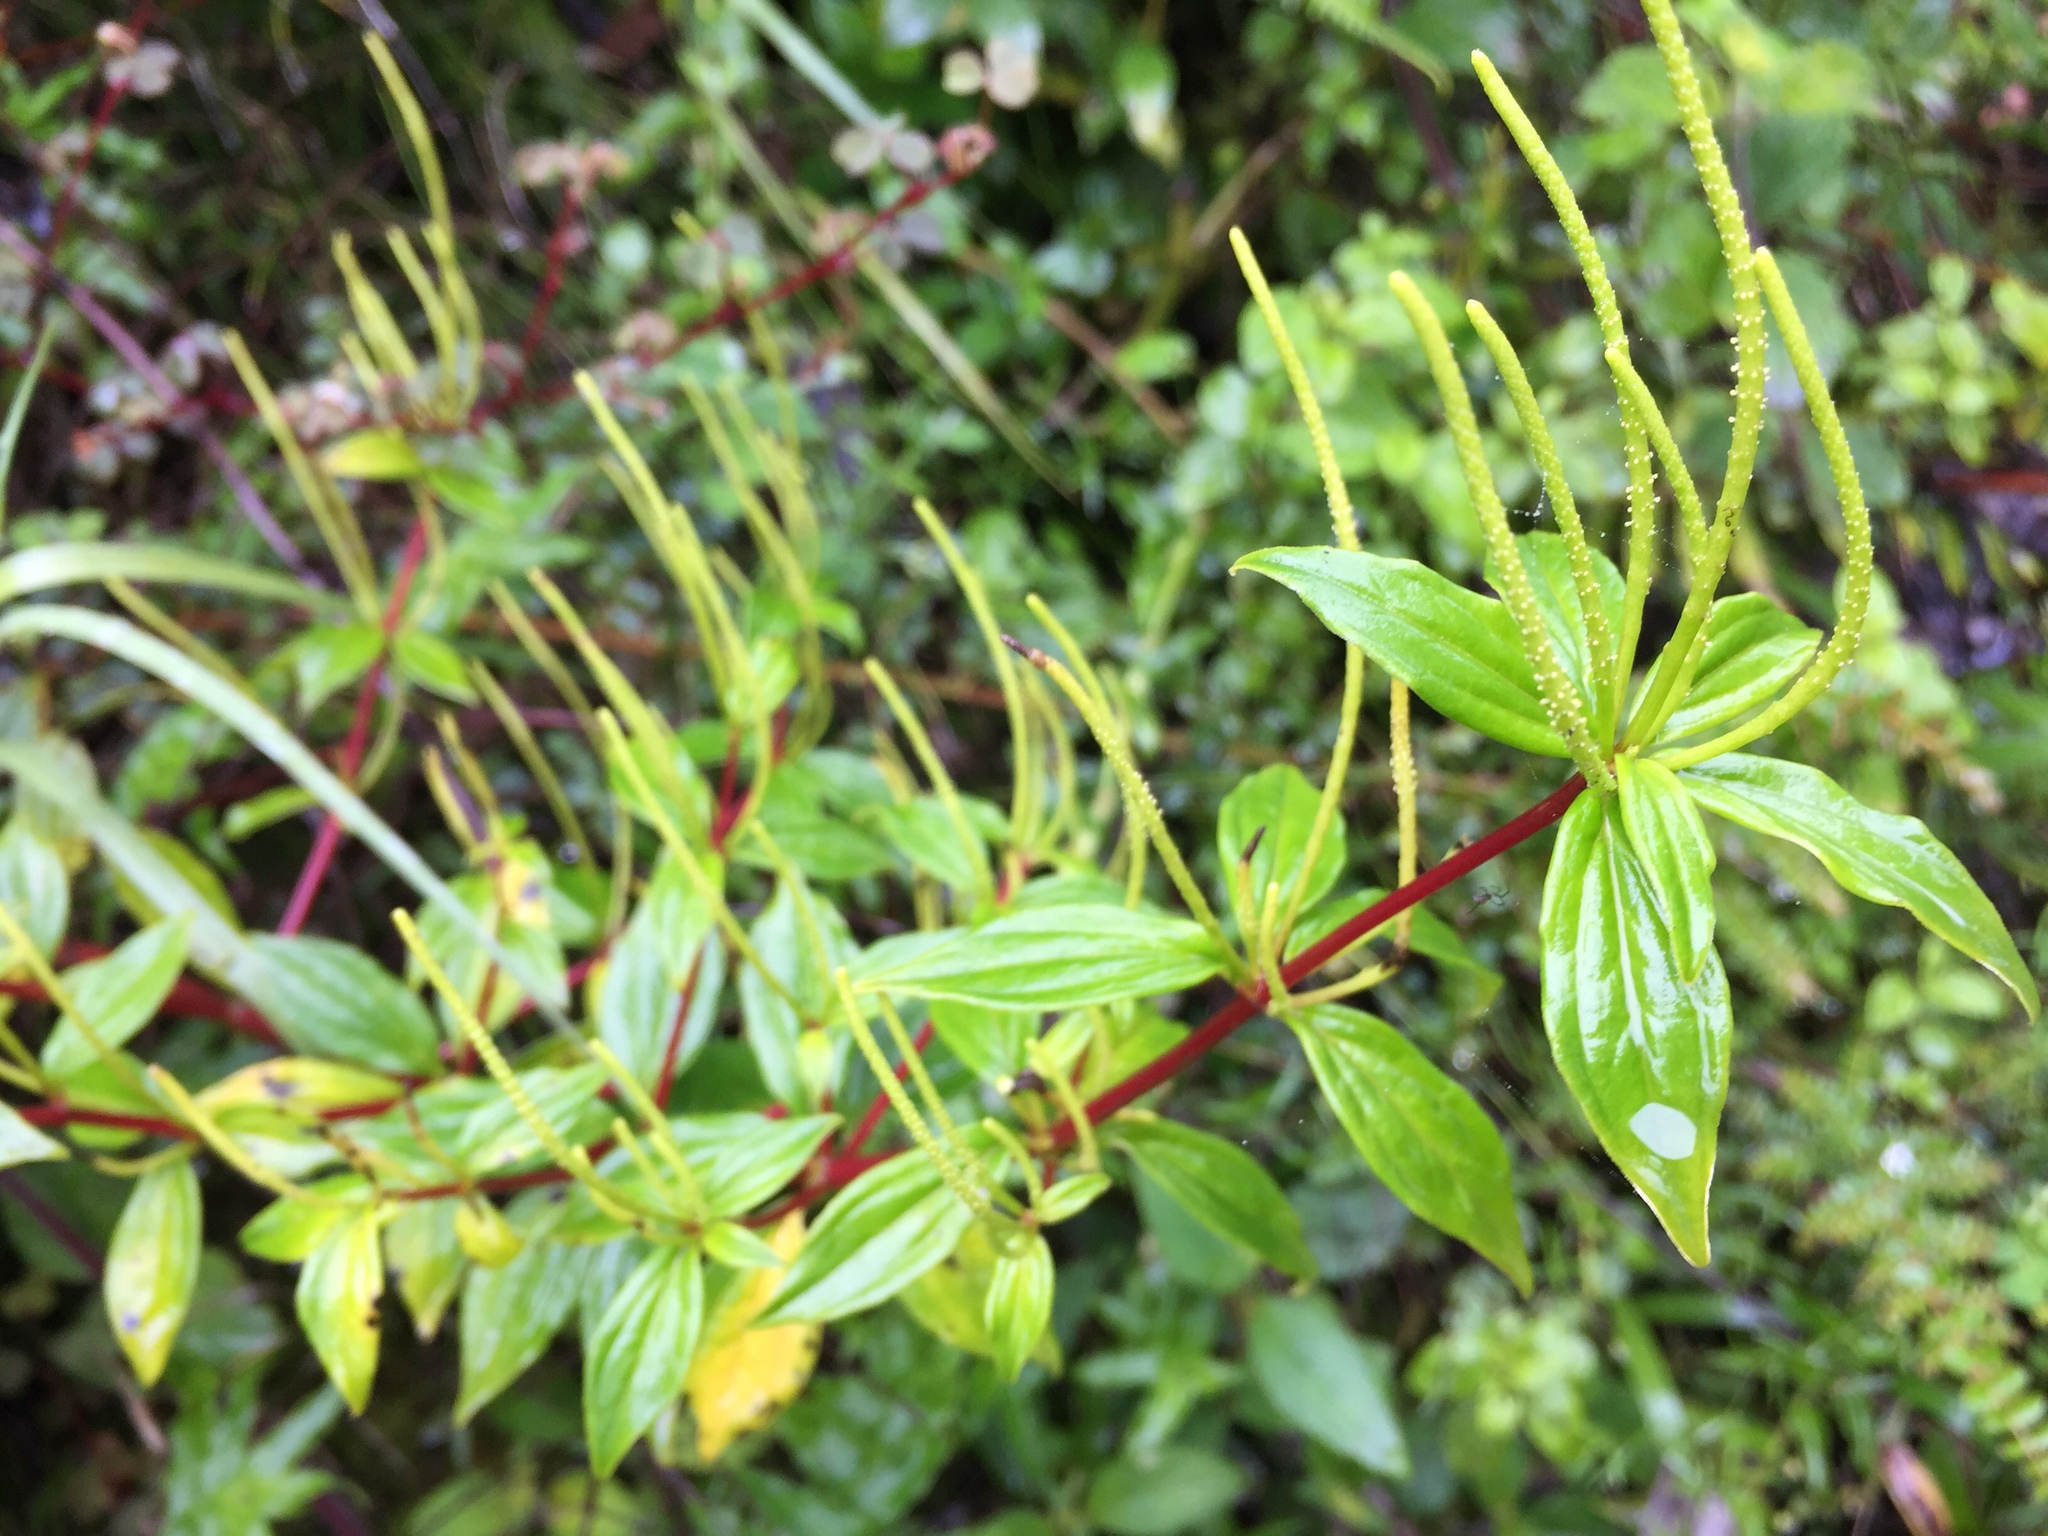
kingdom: Plantae
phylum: Tracheophyta
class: Magnoliopsida
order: Piperales
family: Piperaceae
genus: Peperomia
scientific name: Peperomia lanceolata
